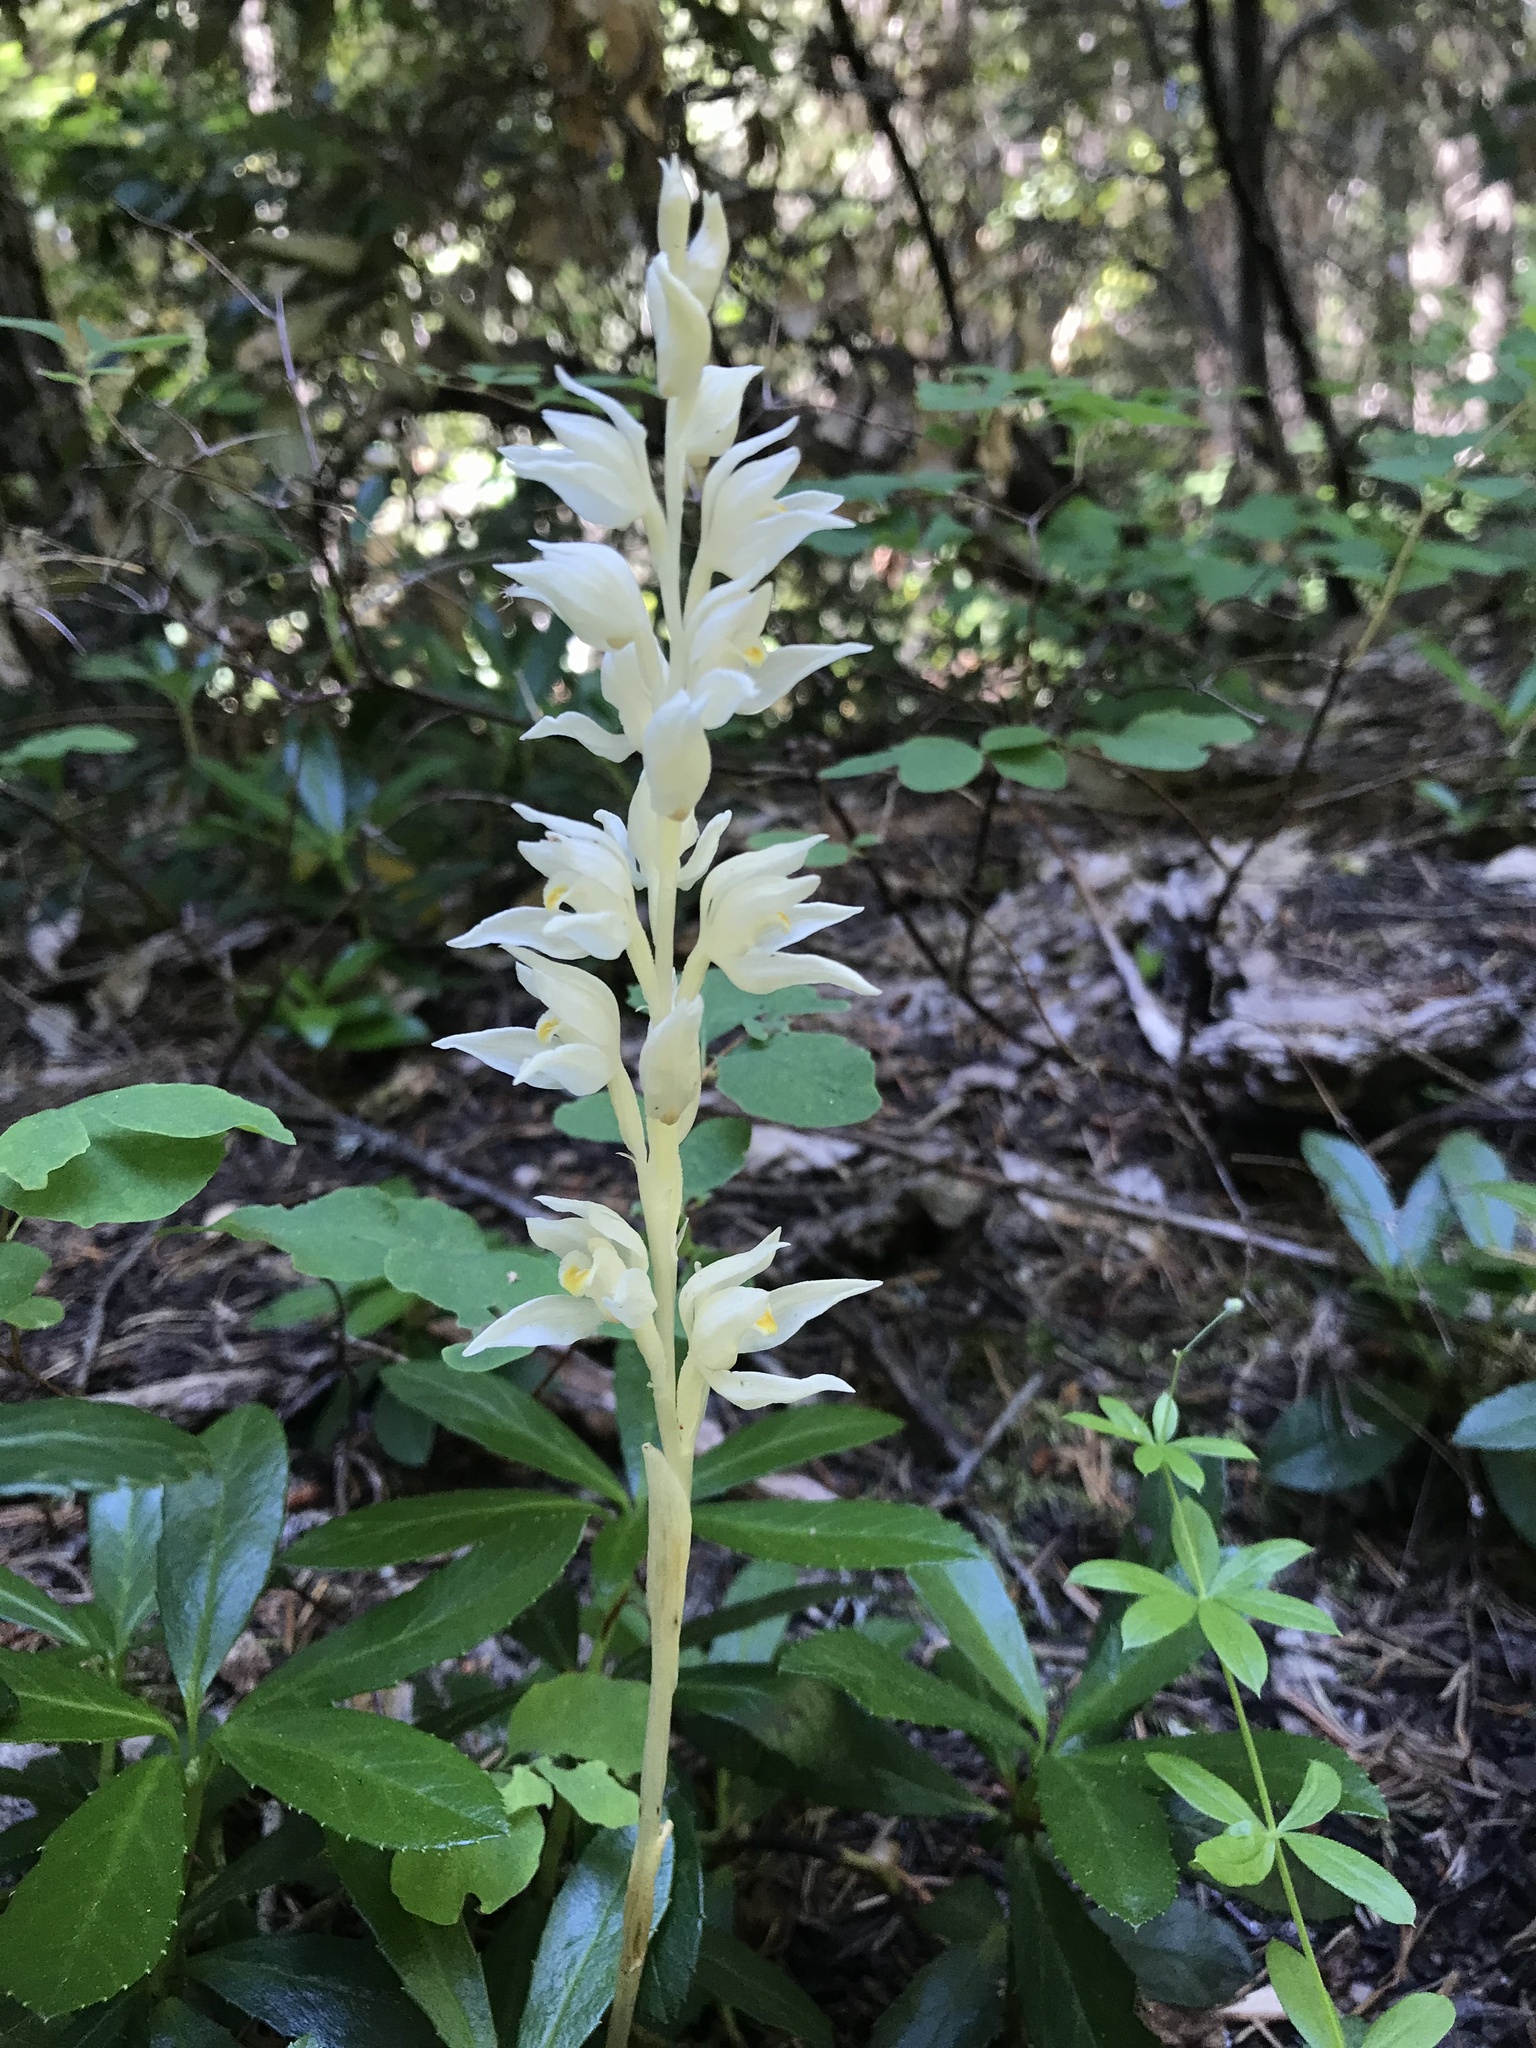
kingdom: Plantae
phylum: Tracheophyta
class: Liliopsida
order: Asparagales
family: Orchidaceae
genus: Cephalanthera
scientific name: Cephalanthera austiniae
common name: Phantom orchid
